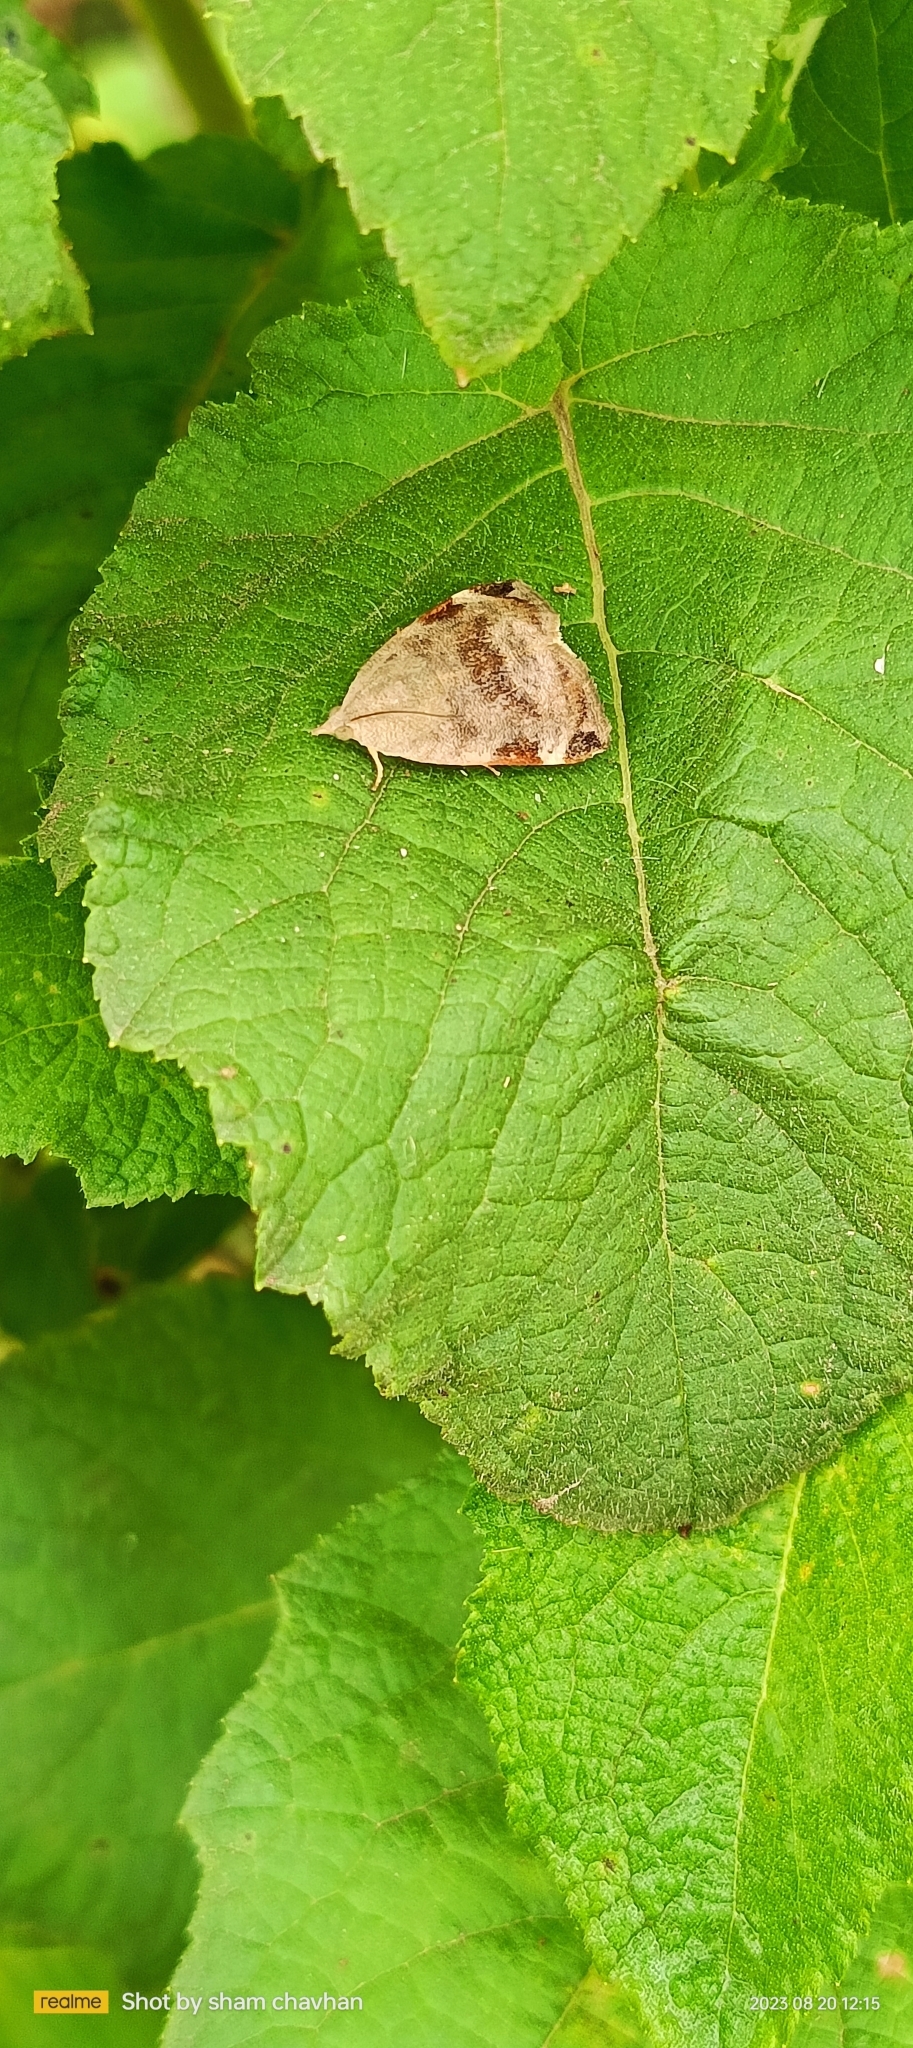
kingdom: Animalia
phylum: Arthropoda
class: Insecta
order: Lepidoptera
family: Hyblaeidae
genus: Hyblaea
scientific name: Hyblaea puera
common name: Teak defoliator moth
